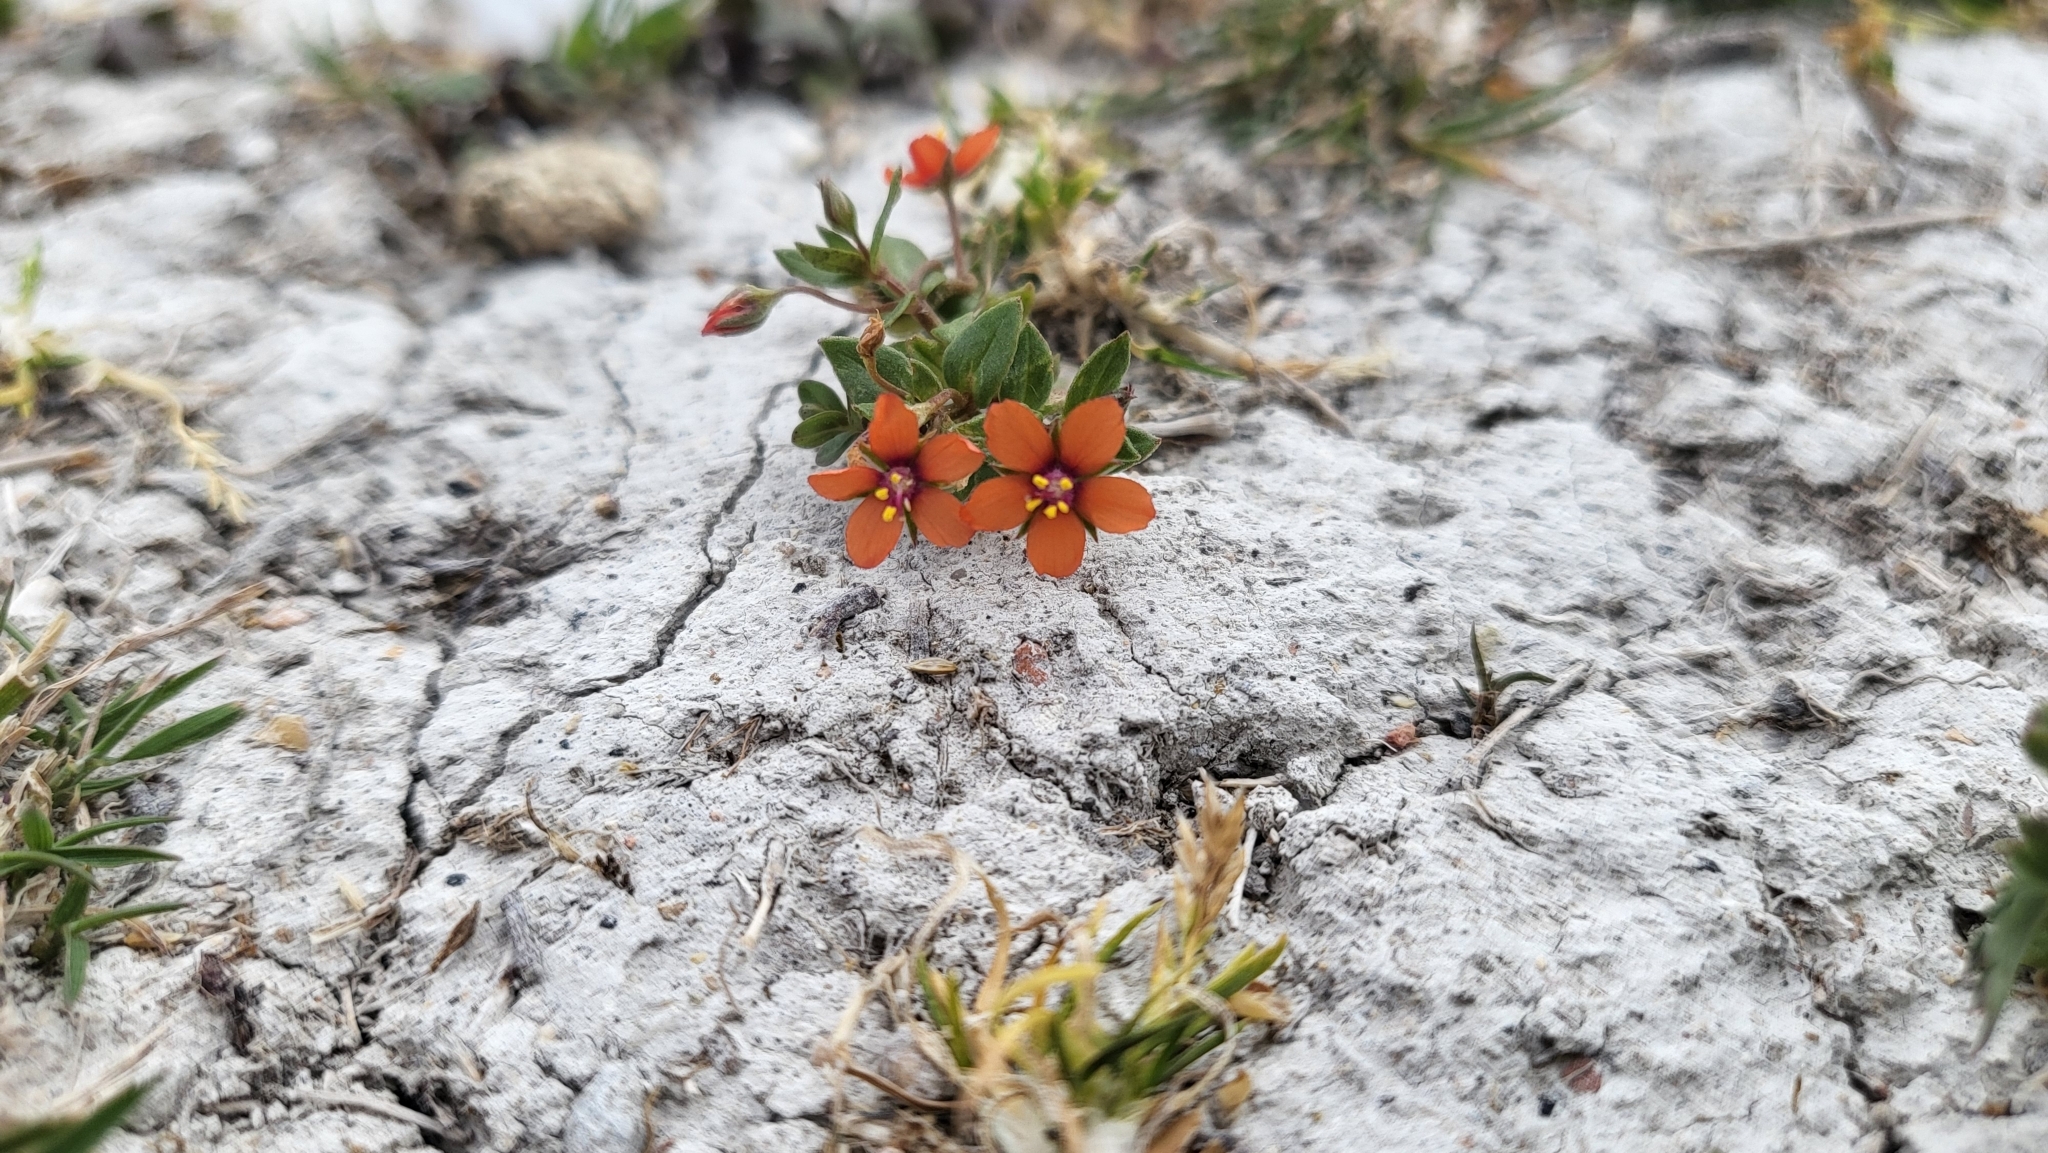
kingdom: Plantae
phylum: Tracheophyta
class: Magnoliopsida
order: Ericales
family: Primulaceae
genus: Lysimachia
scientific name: Lysimachia arvensis
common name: Scarlet pimpernel
